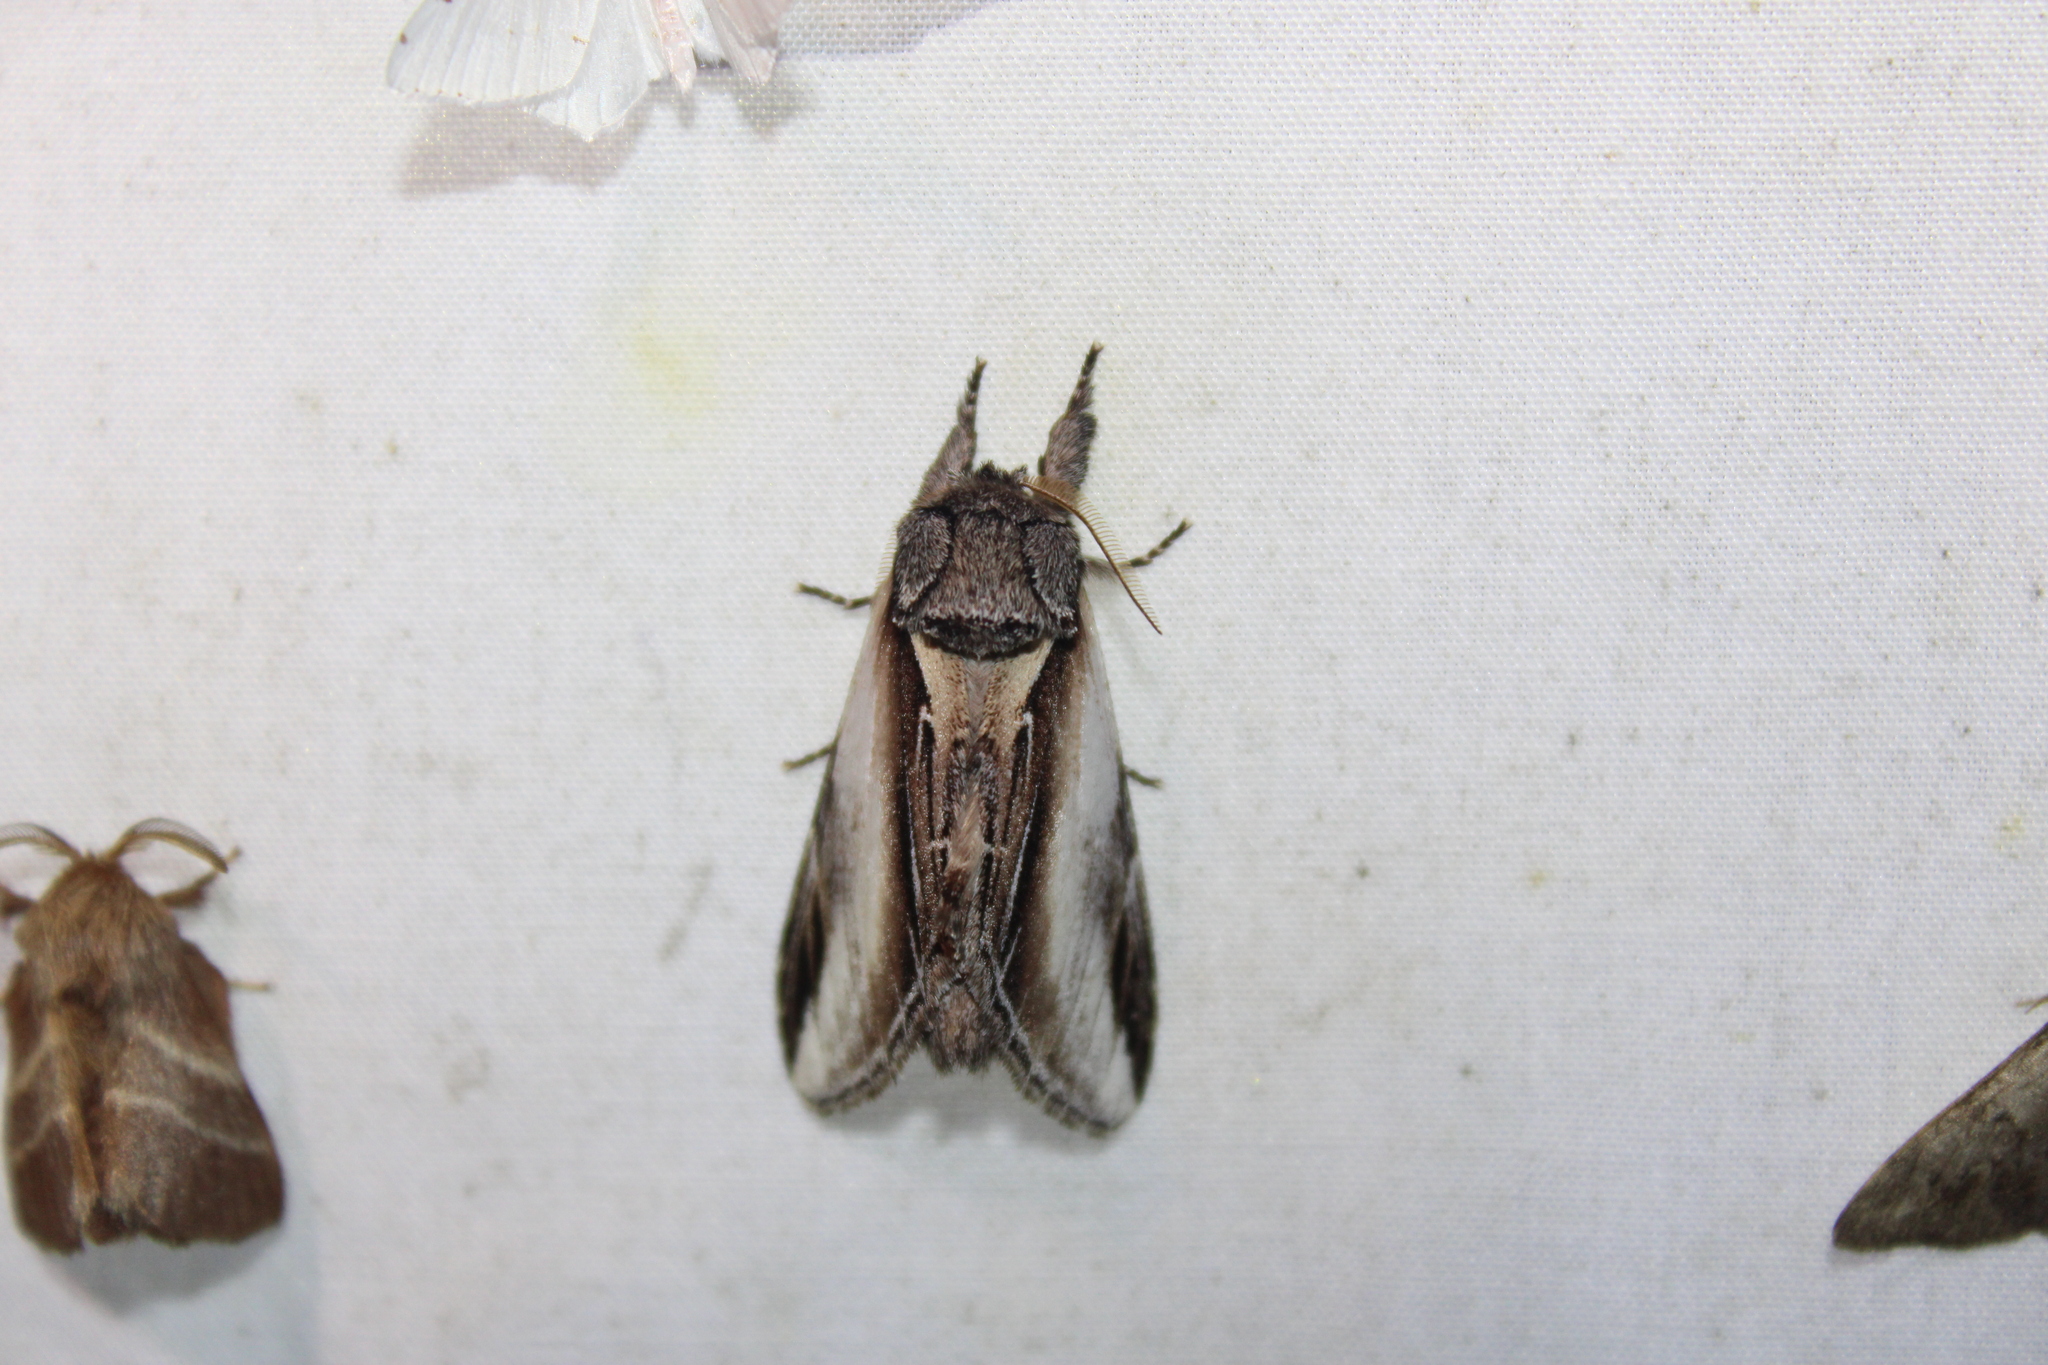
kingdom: Animalia
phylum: Arthropoda
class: Insecta
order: Lepidoptera
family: Notodontidae
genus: Pheosia
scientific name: Pheosia rimosa
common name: Black-rimmed prominent
